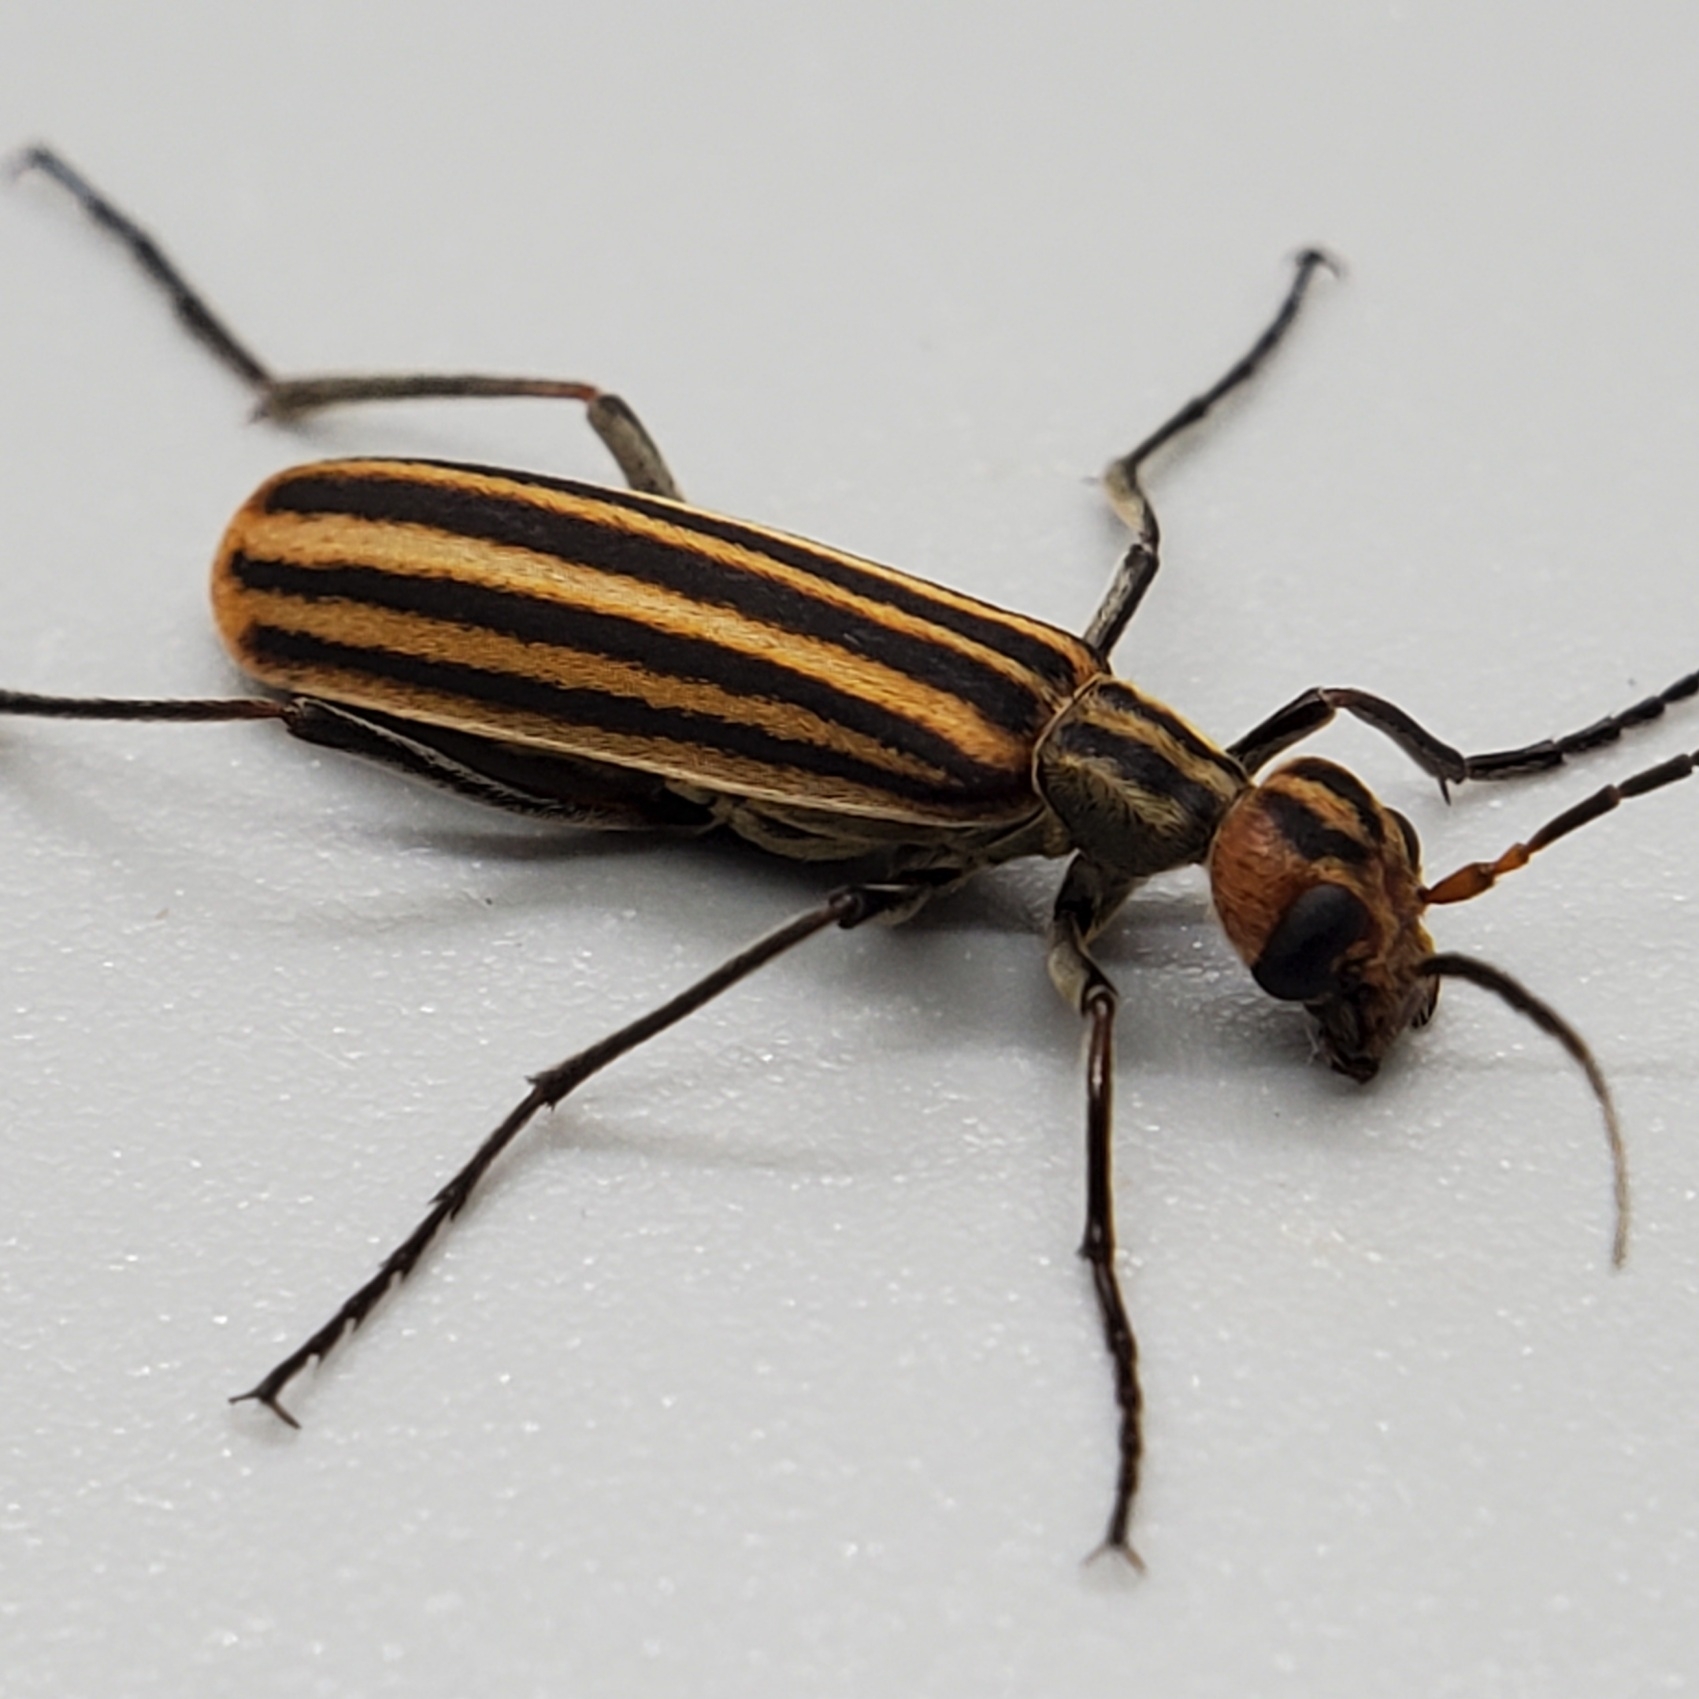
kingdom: Animalia
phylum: Arthropoda
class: Insecta
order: Coleoptera
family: Meloidae
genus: Epicauta
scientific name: Epicauta vittata
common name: Old-fashioned potato beetle
